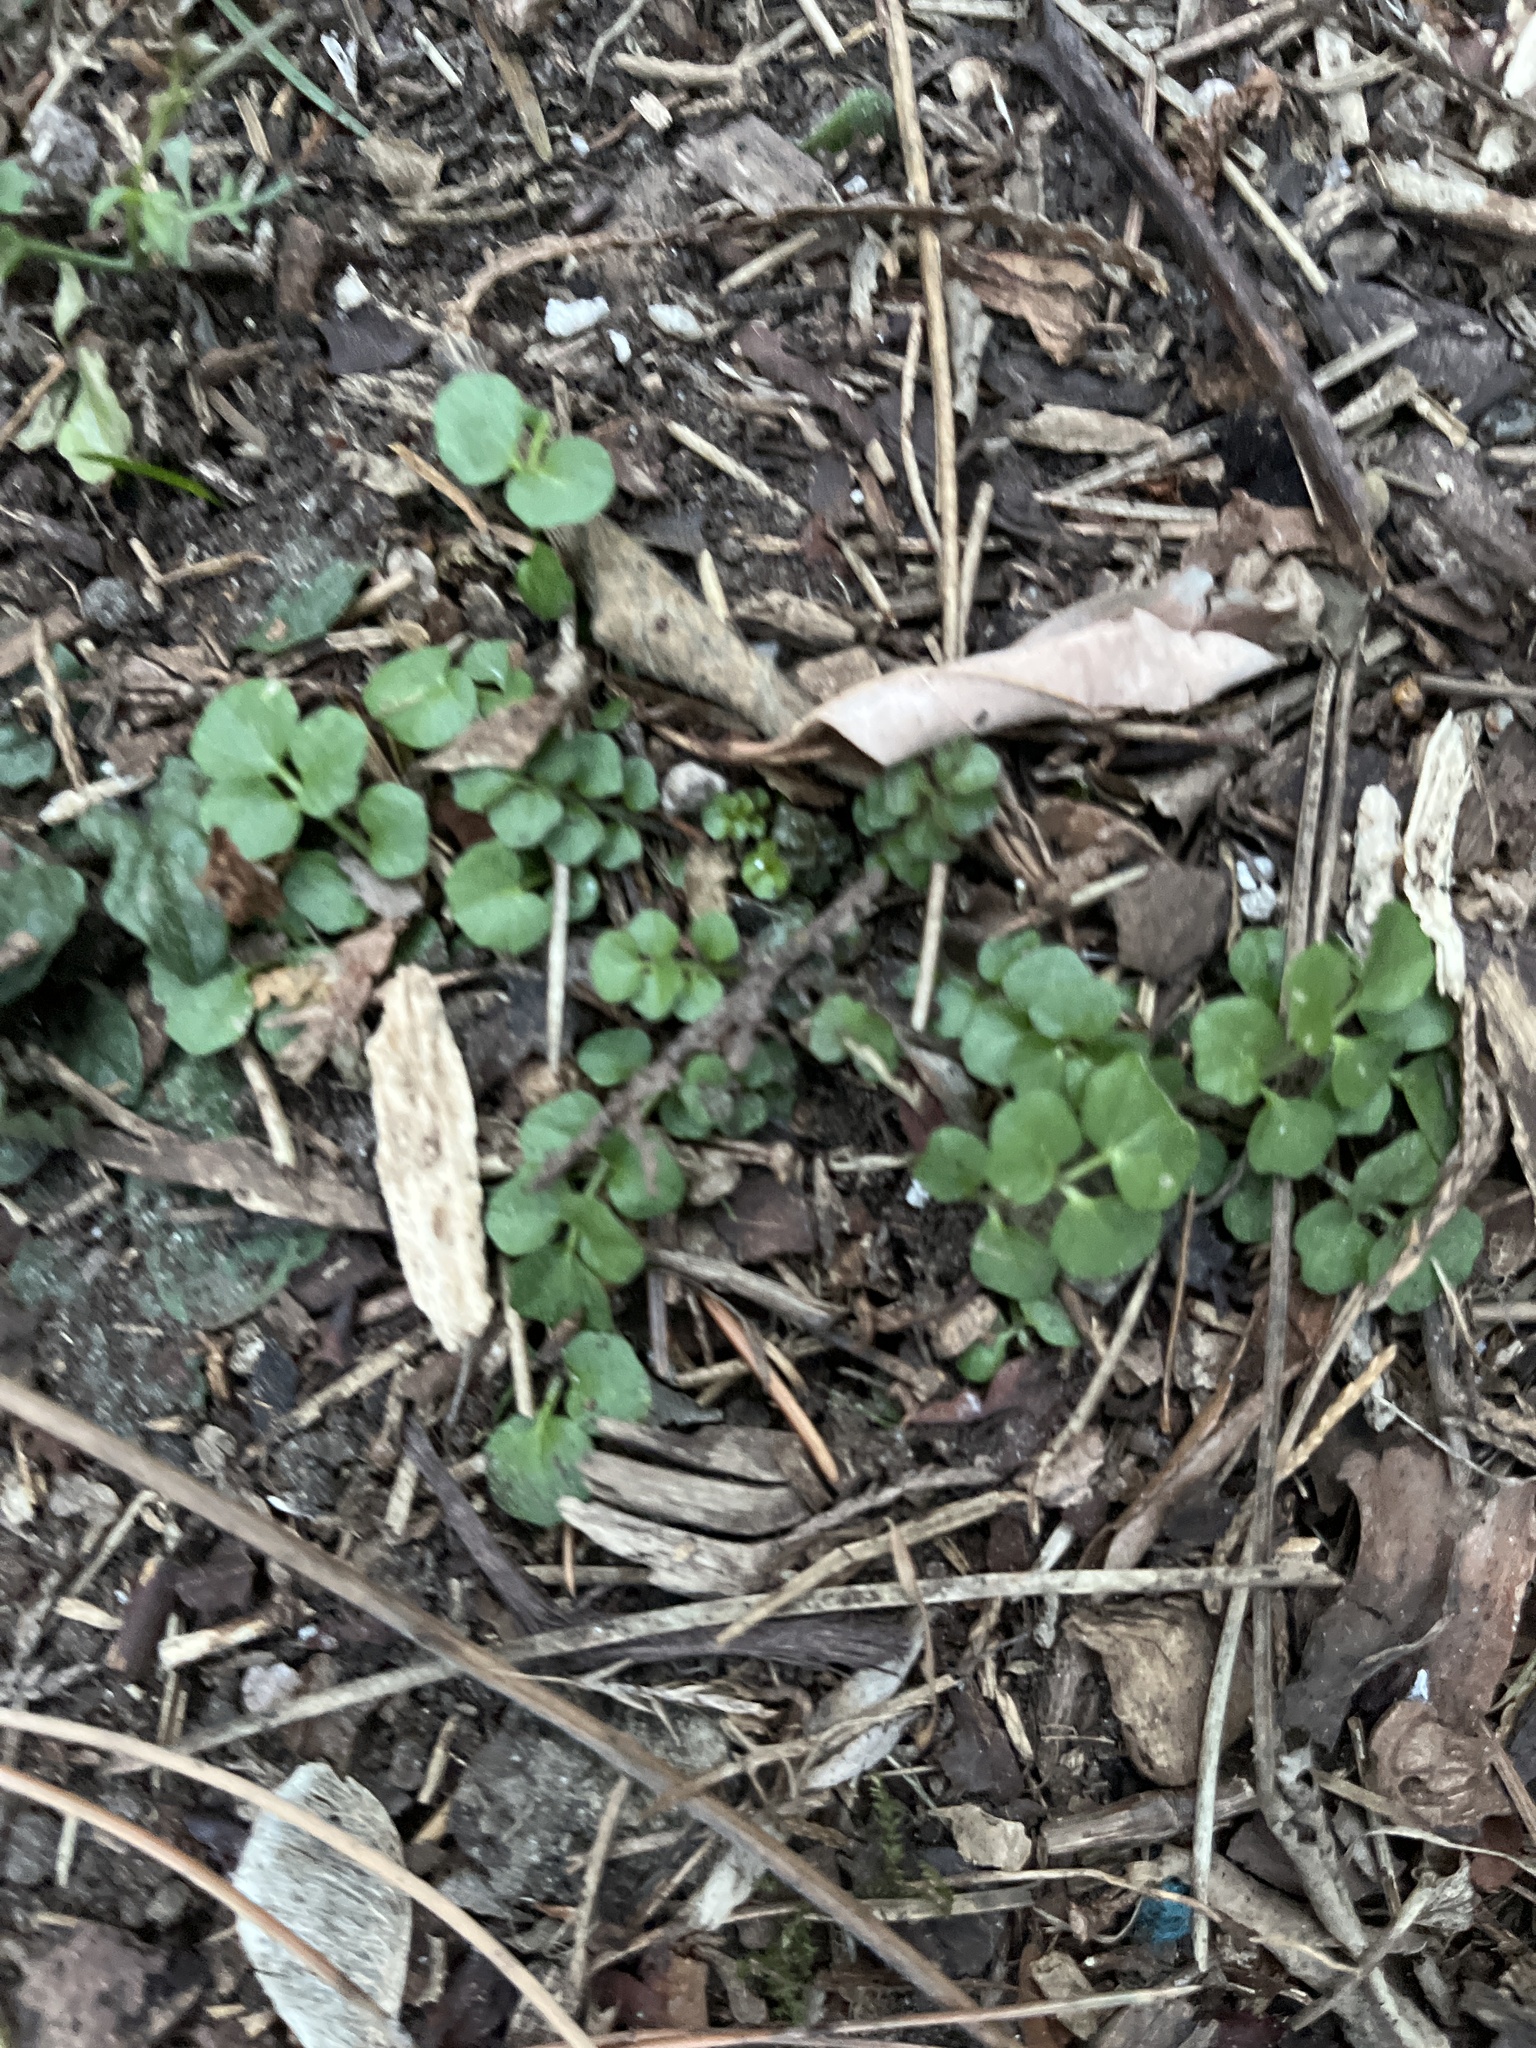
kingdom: Plantae
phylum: Tracheophyta
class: Magnoliopsida
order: Brassicales
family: Brassicaceae
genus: Cardamine
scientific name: Cardamine hirsuta
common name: Hairy bittercress
